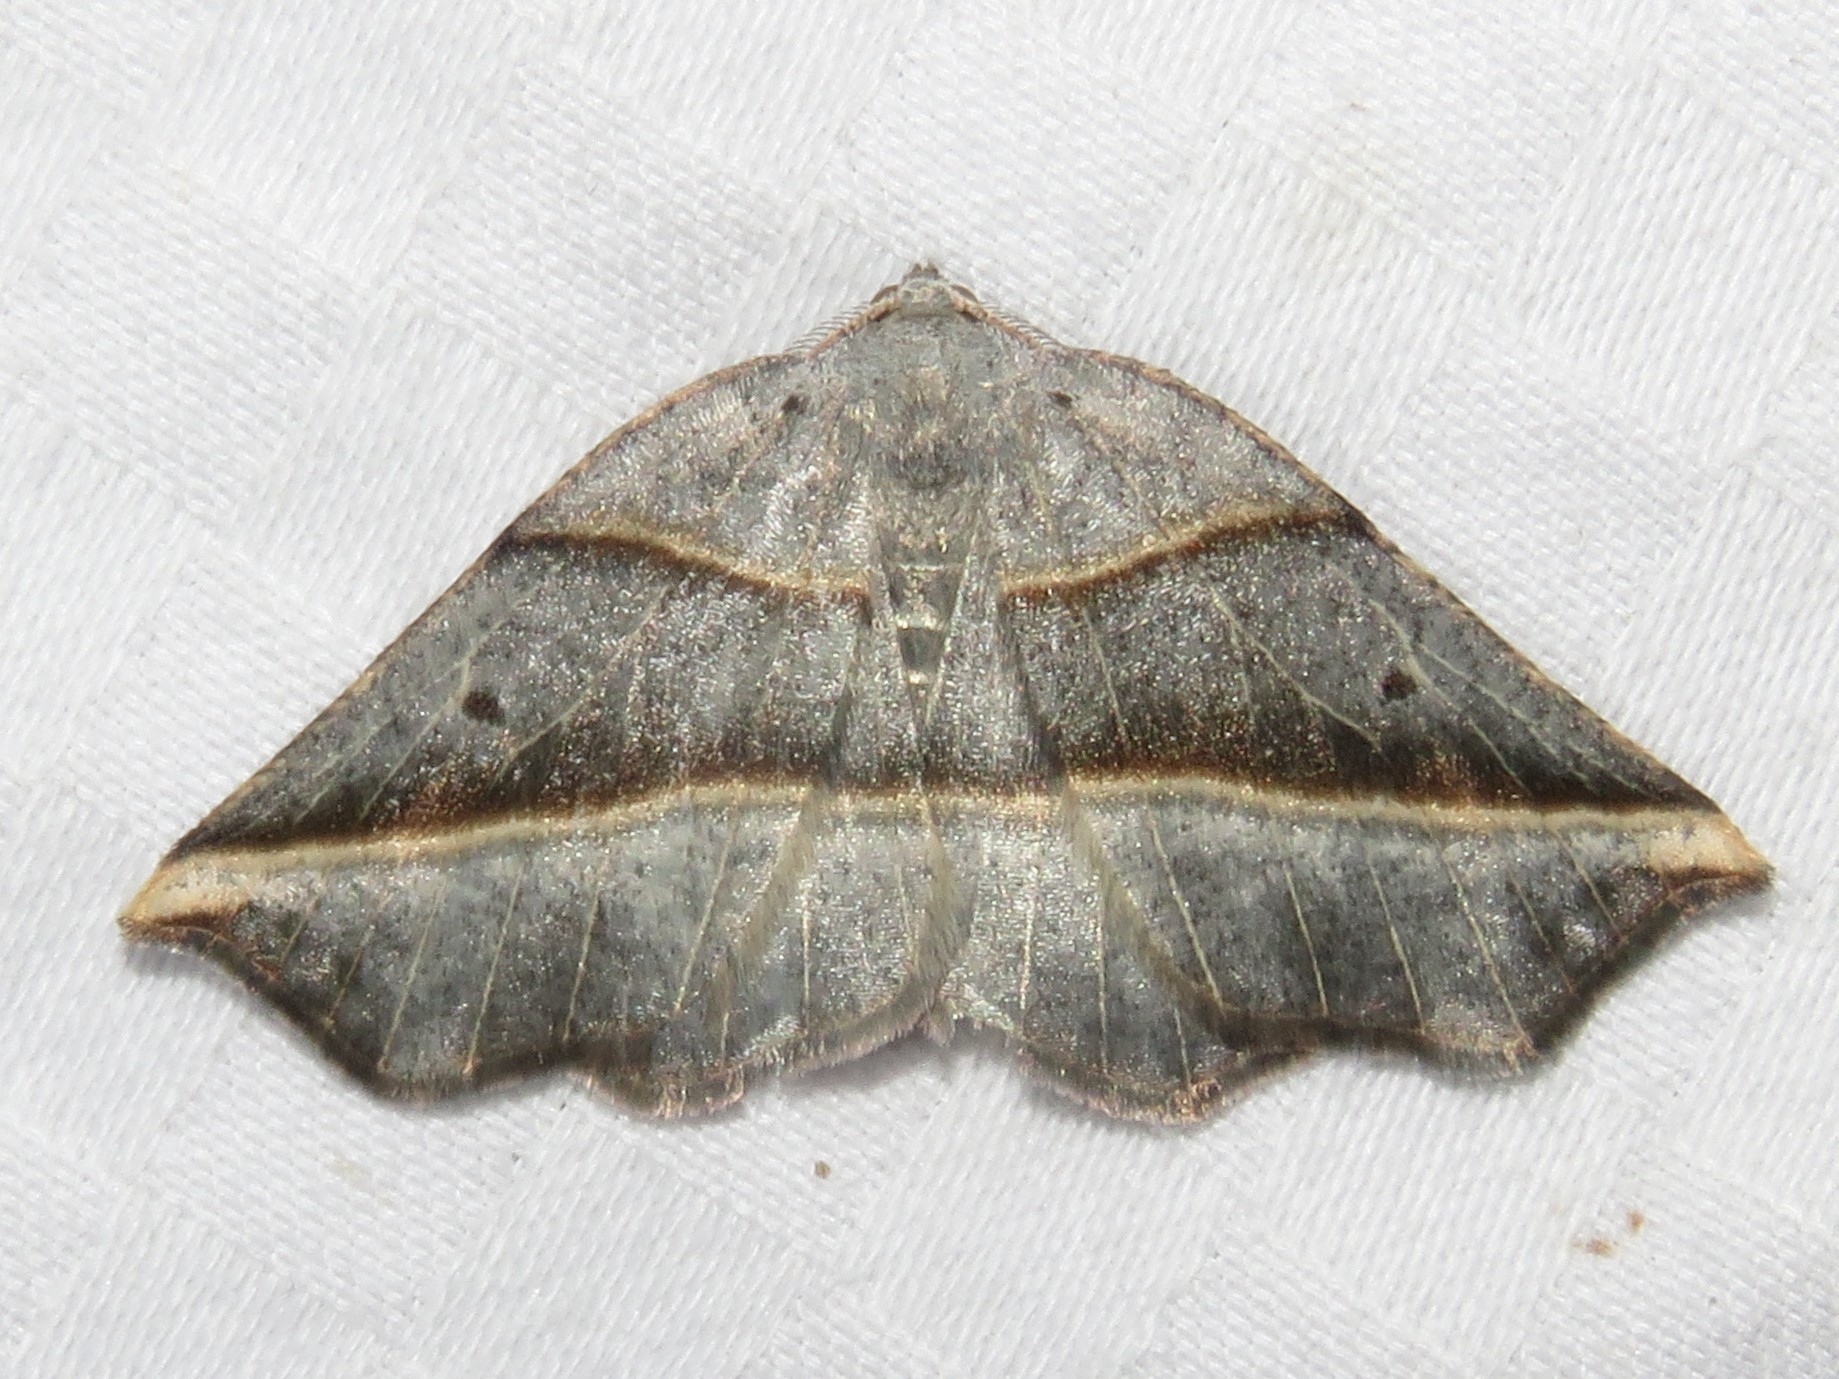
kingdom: Animalia
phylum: Arthropoda
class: Insecta
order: Lepidoptera
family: Geometridae
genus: Metanema
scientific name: Metanema determinata
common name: Dark metanema
